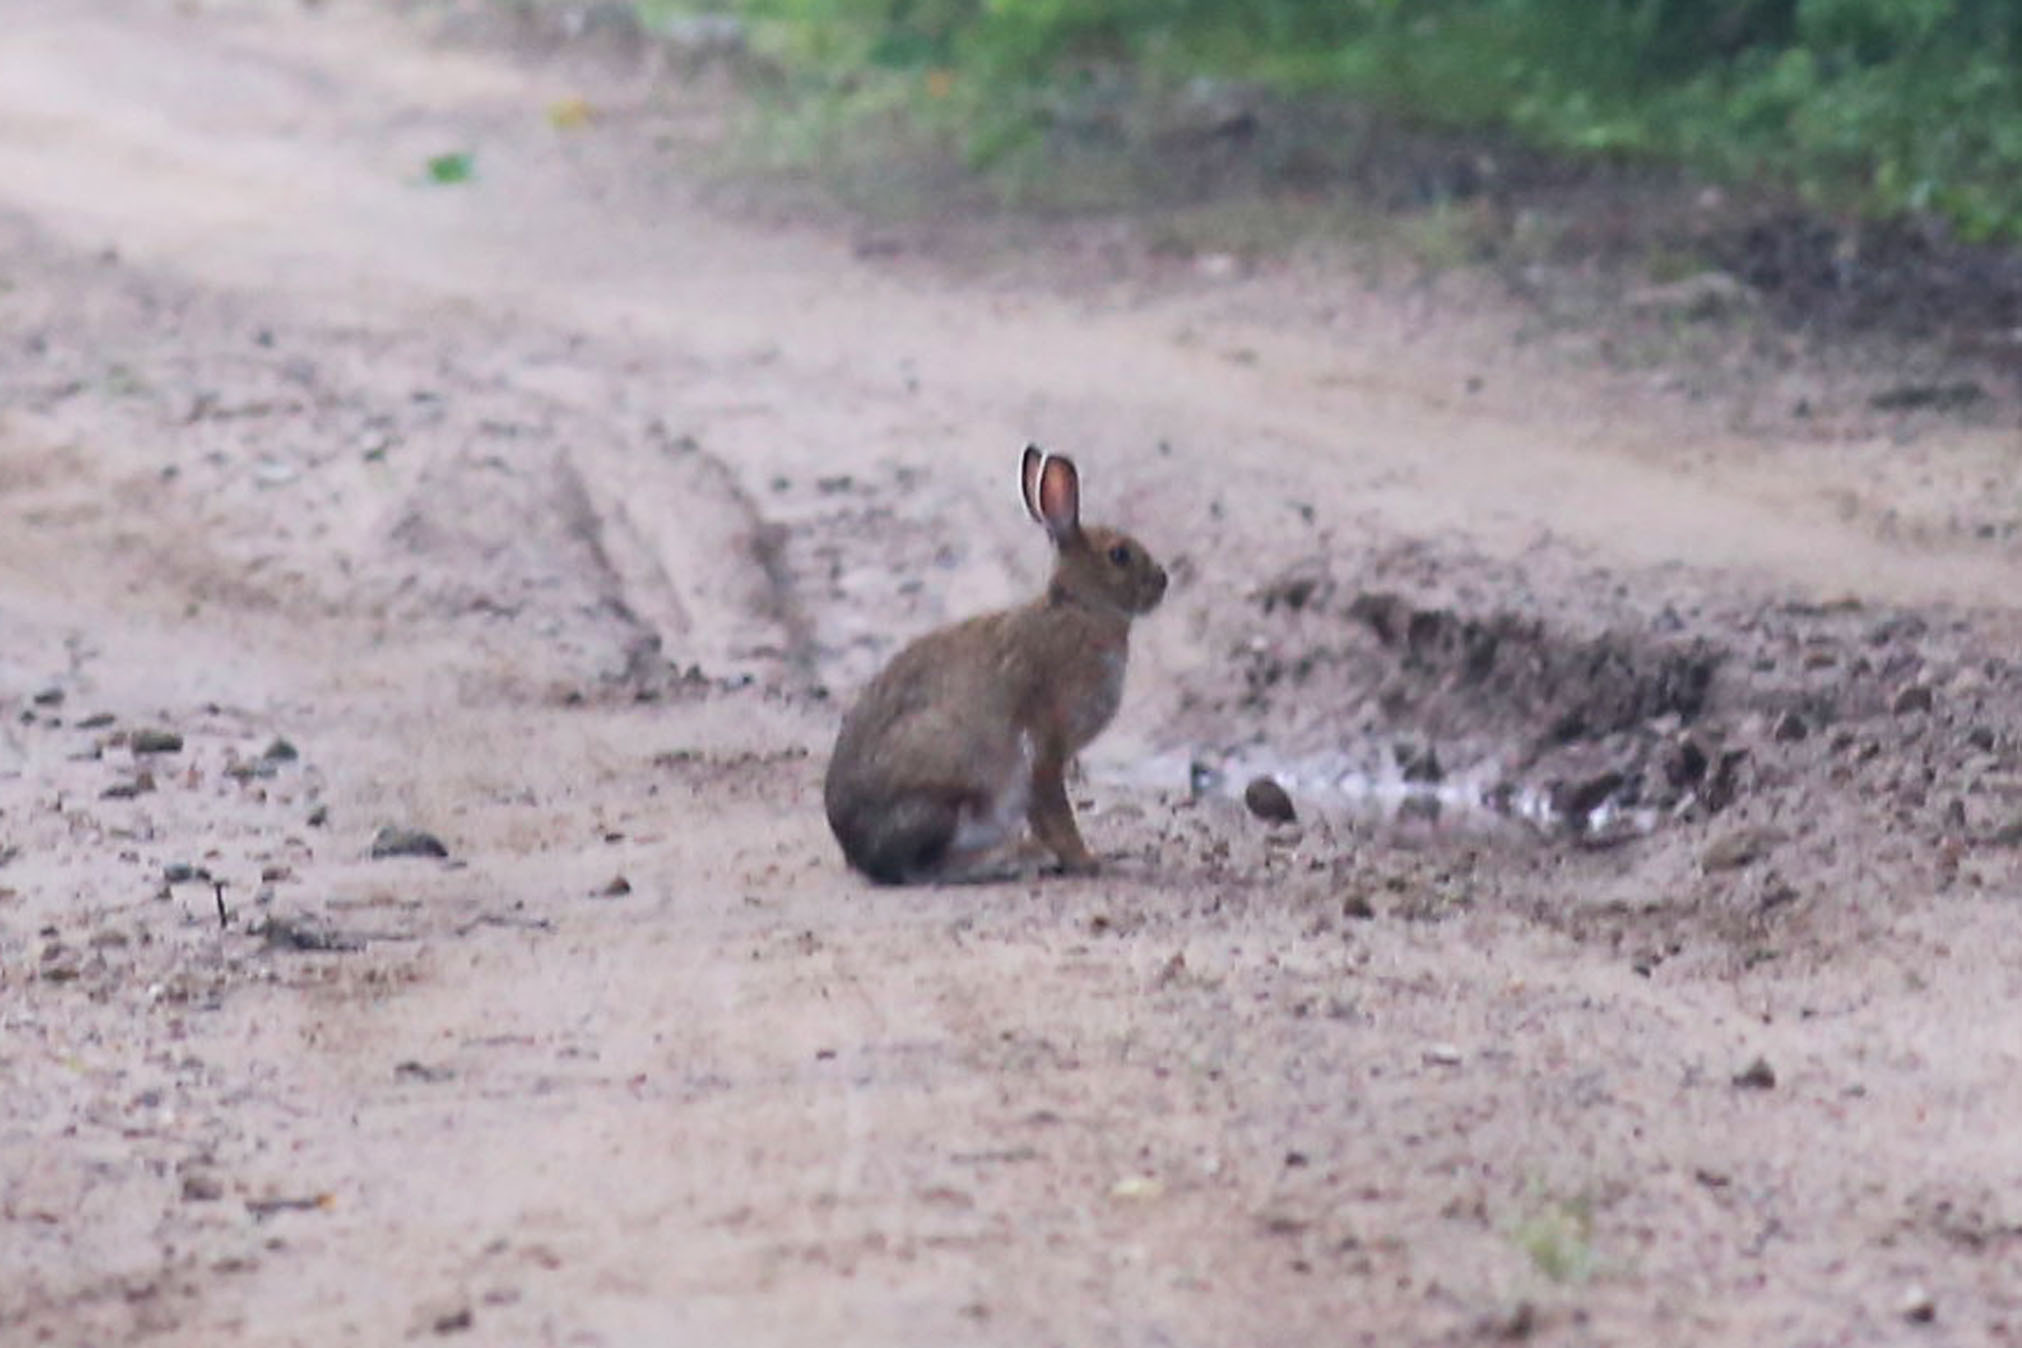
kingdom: Animalia
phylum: Chordata
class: Mammalia
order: Lagomorpha
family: Leporidae
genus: Lepus
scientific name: Lepus americanus
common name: Snowshoe hare
